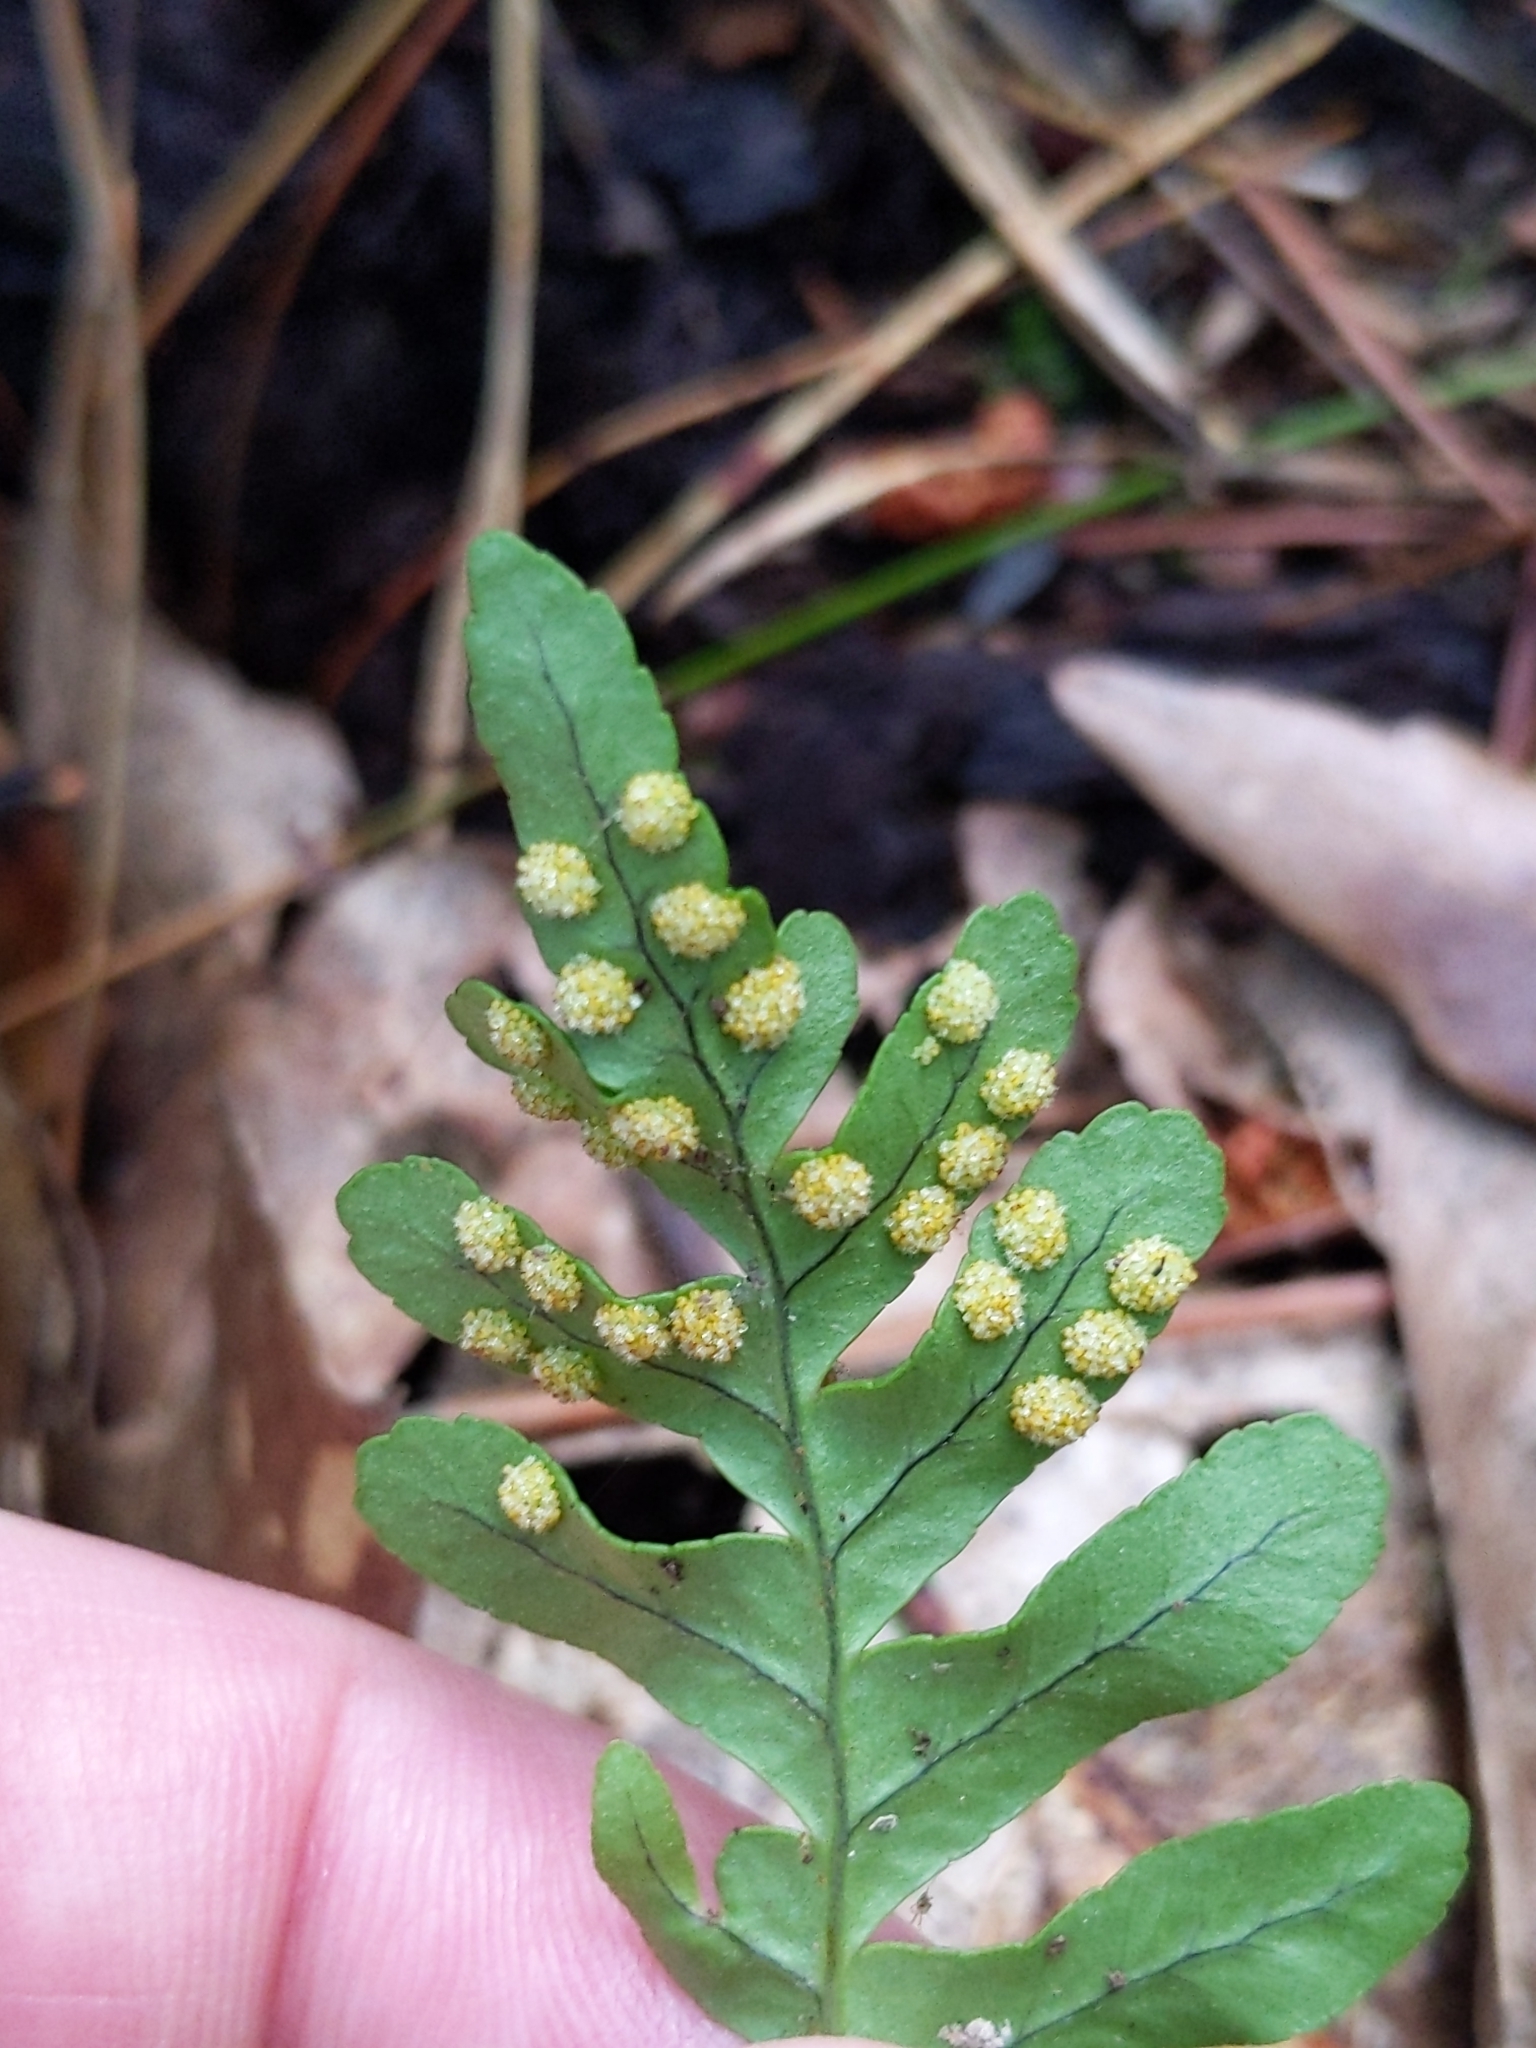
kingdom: Plantae
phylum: Tracheophyta
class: Polypodiopsida
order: Polypodiales
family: Polypodiaceae
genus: Polypodium
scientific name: Polypodium virginianum
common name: American wall fern
